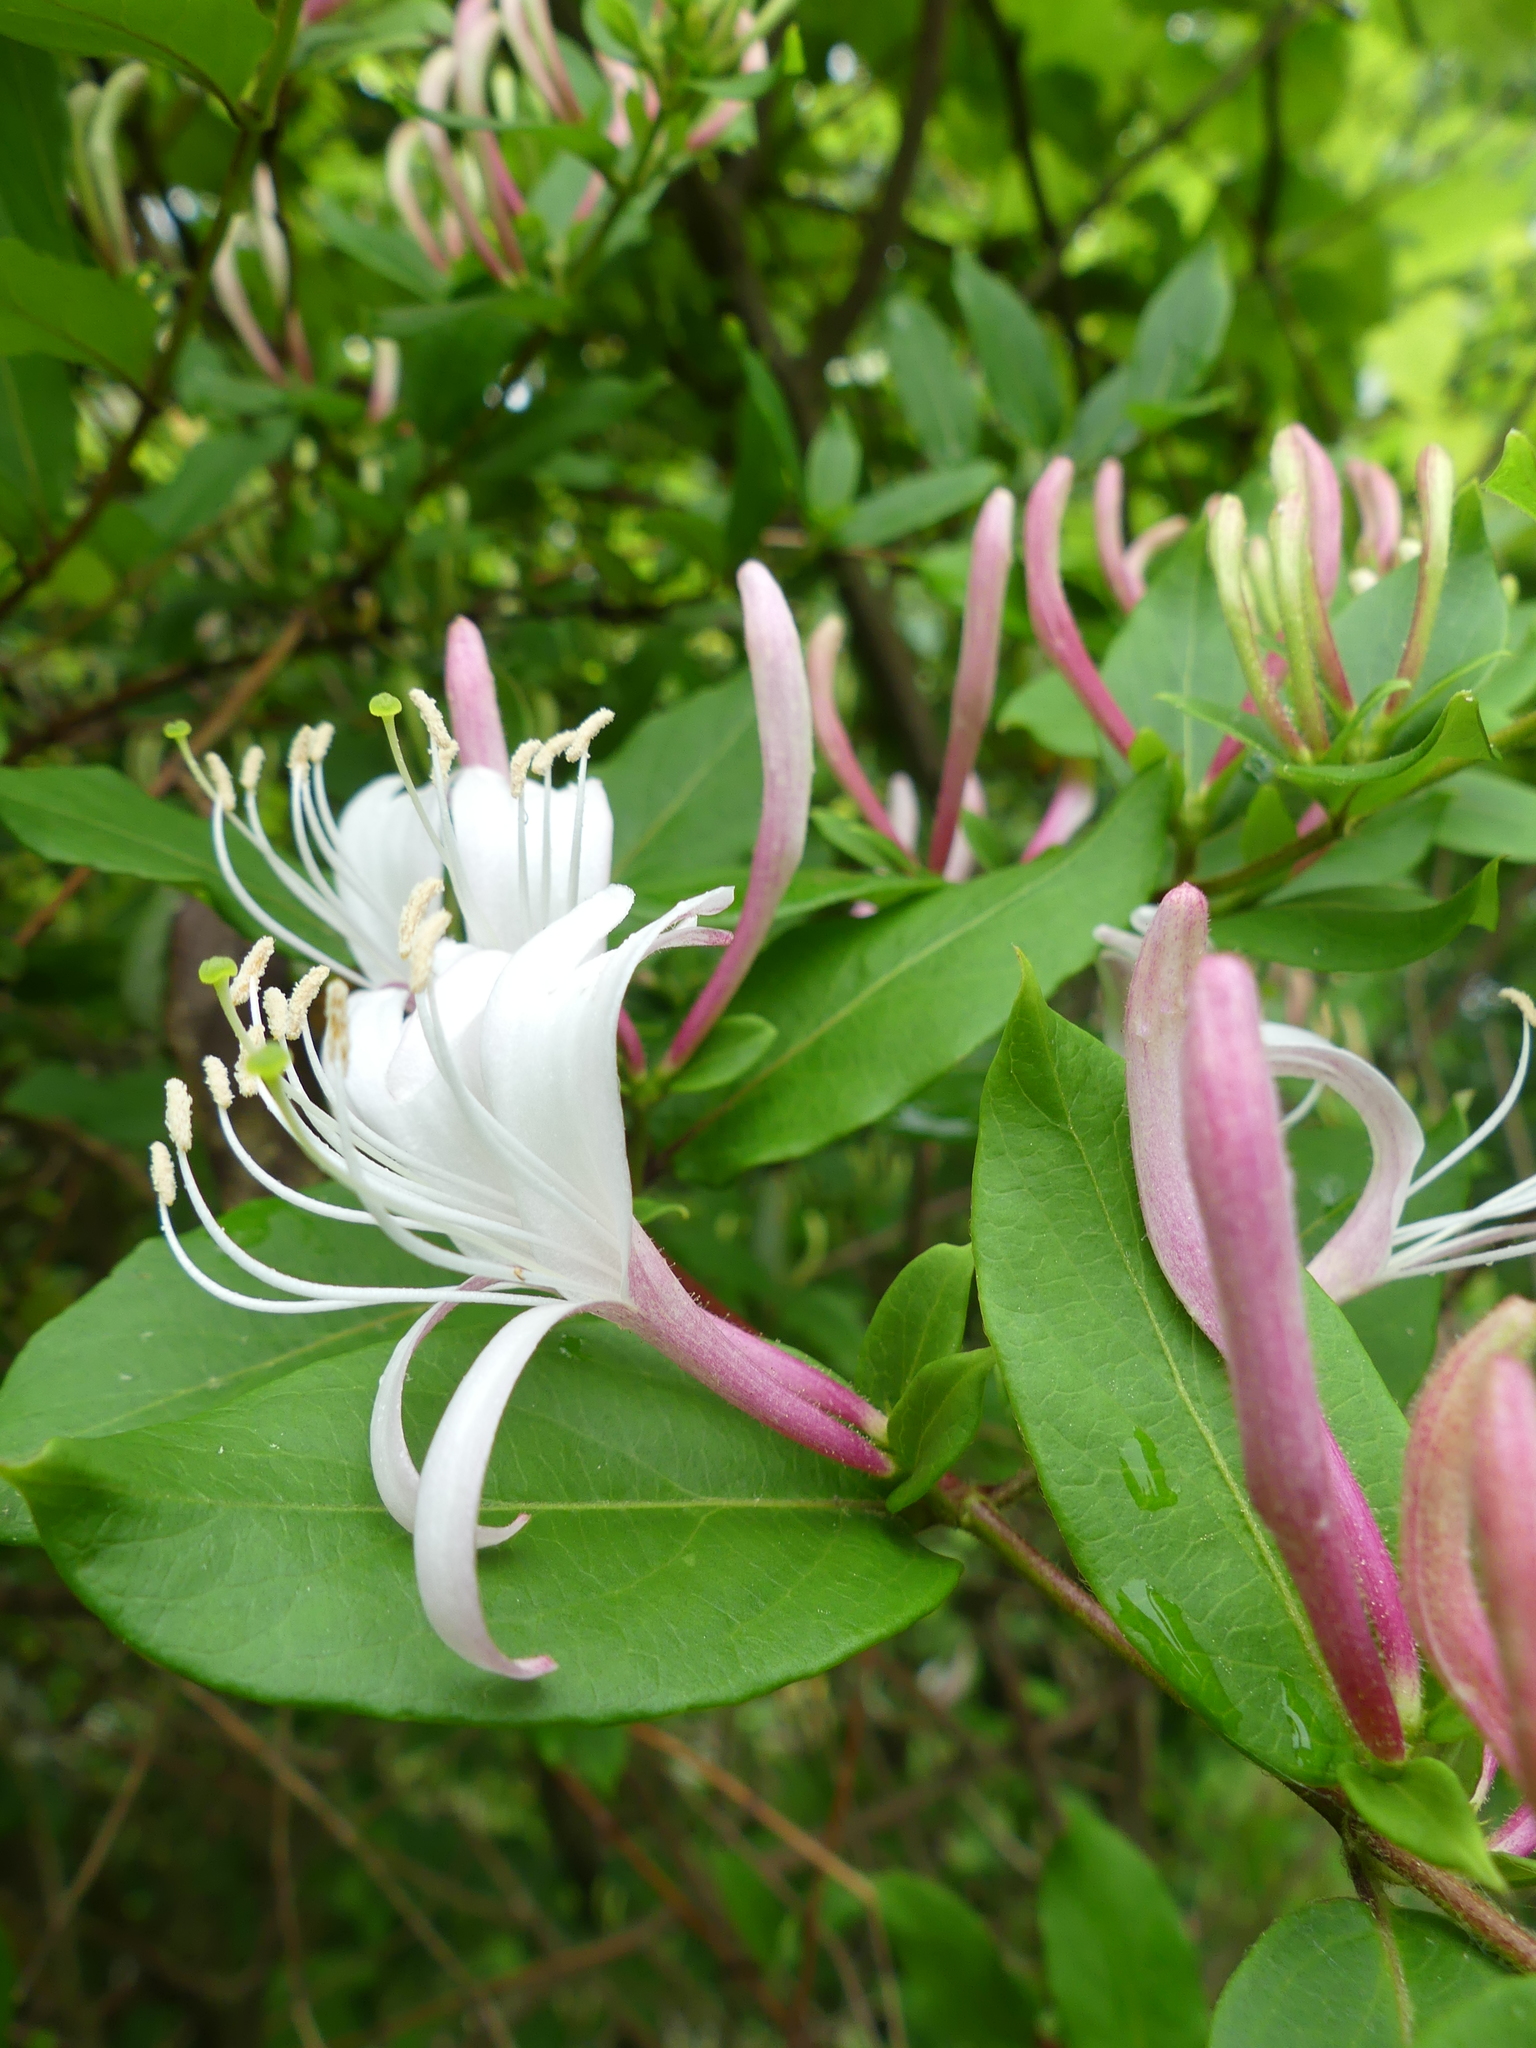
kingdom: Plantae
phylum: Tracheophyta
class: Magnoliopsida
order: Dipsacales
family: Caprifoliaceae
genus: Lonicera
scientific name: Lonicera japonica
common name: Japanese honeysuckle
